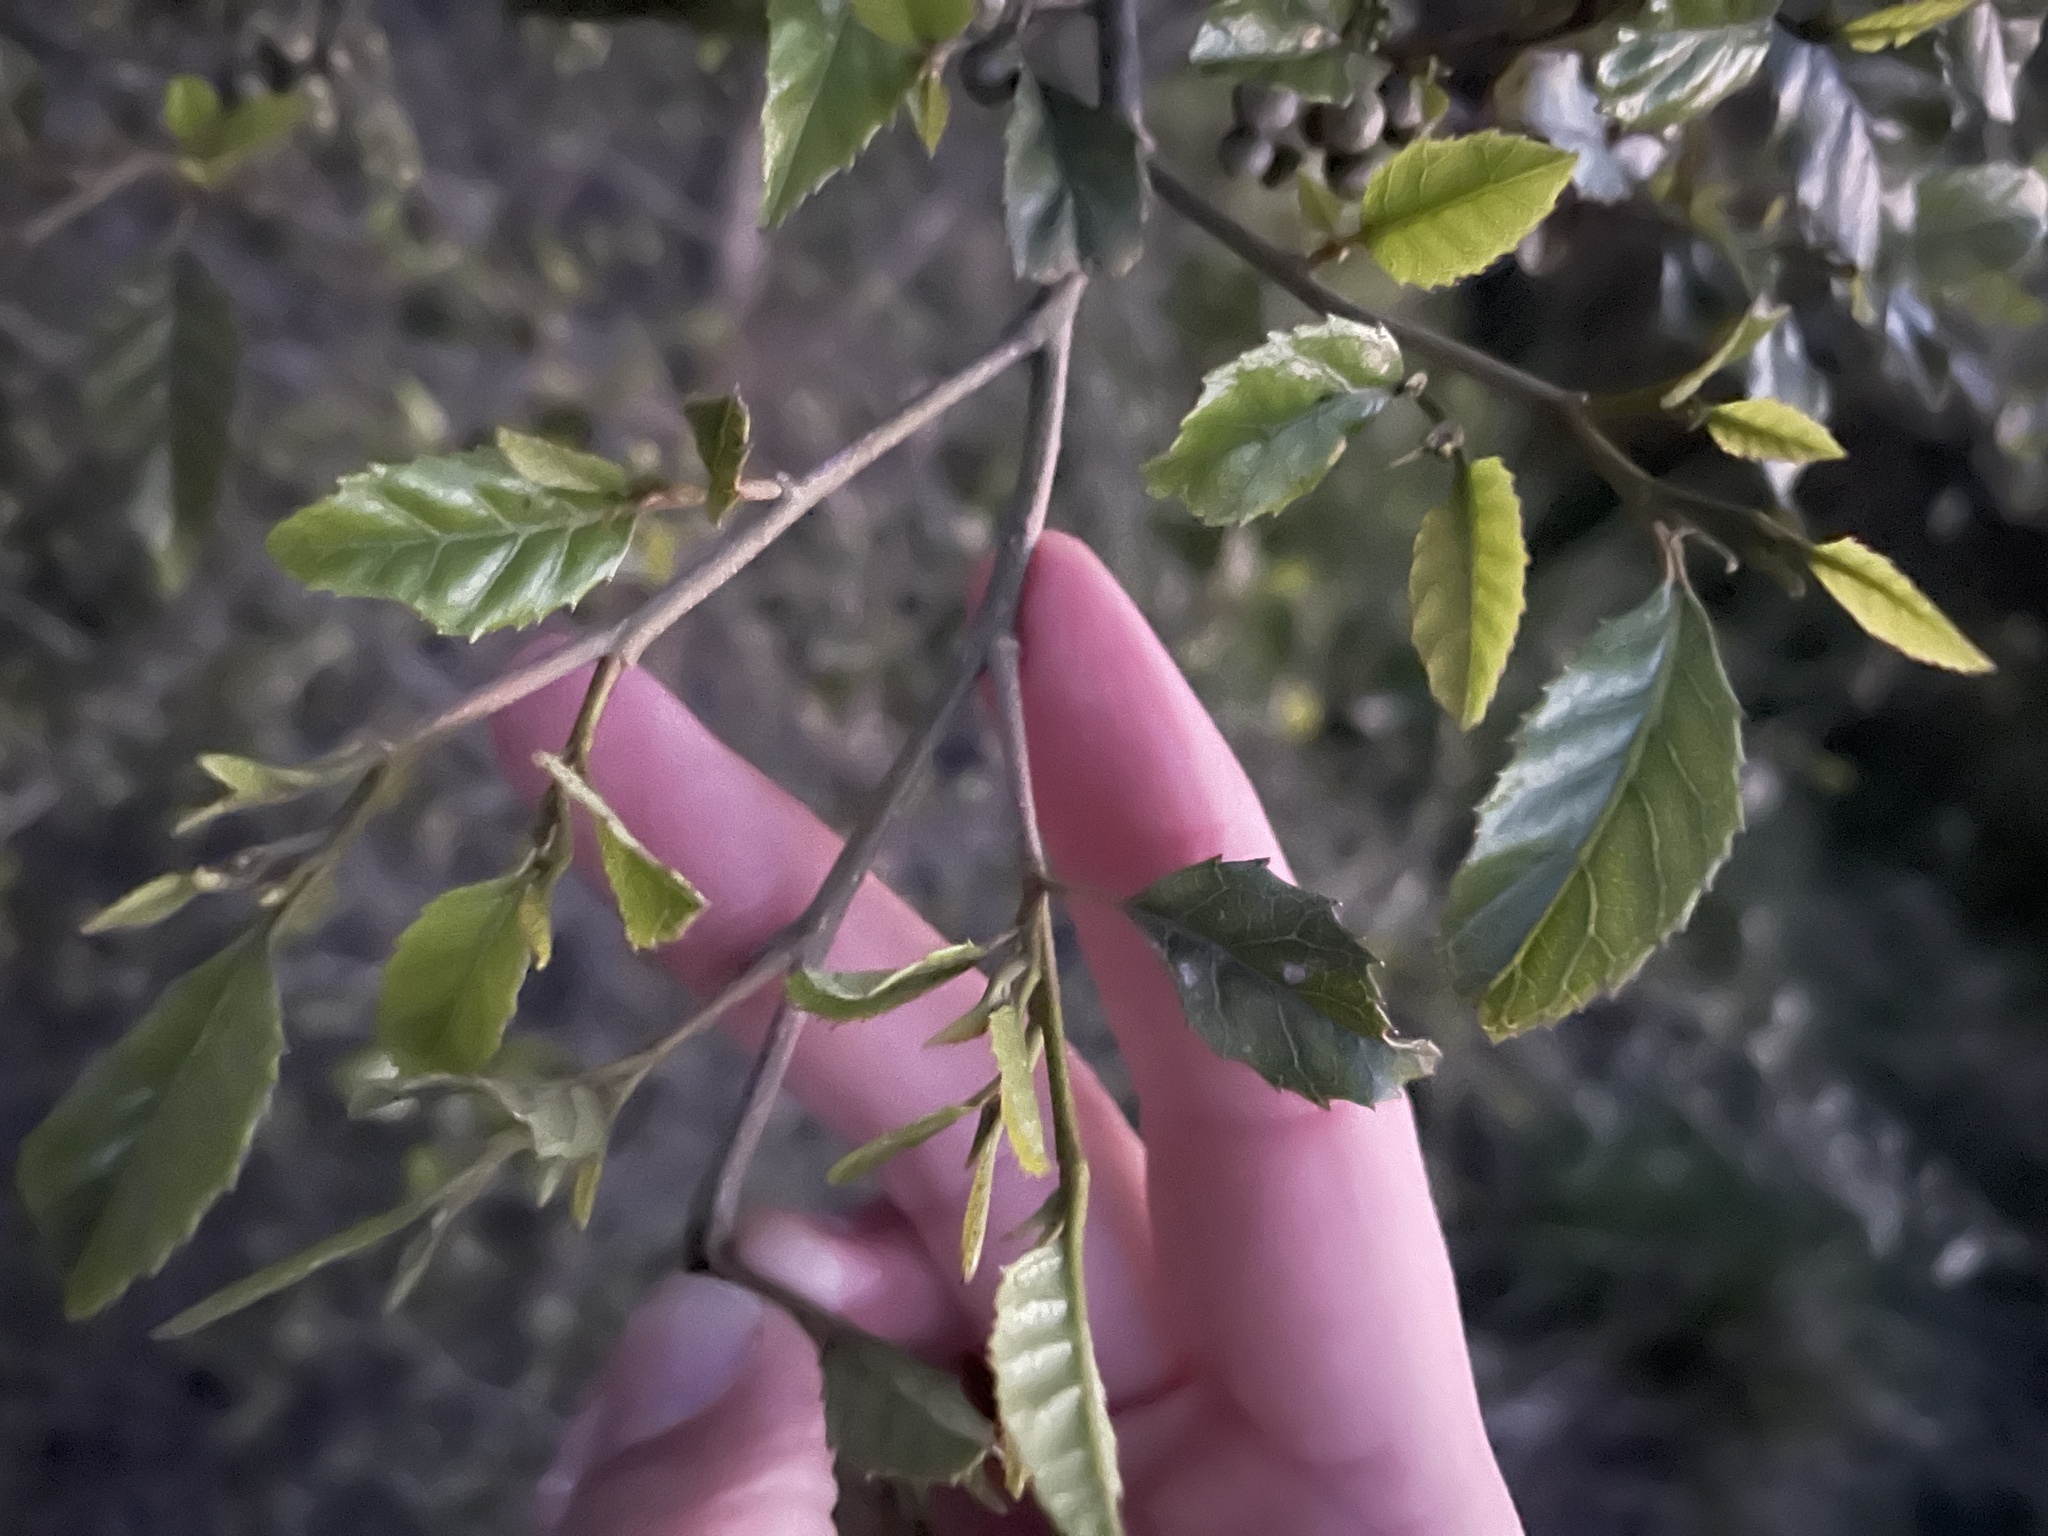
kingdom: Plantae
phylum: Tracheophyta
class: Magnoliopsida
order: Asterales
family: Rousseaceae
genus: Carpodetus
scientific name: Carpodetus serratus
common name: White mapau
